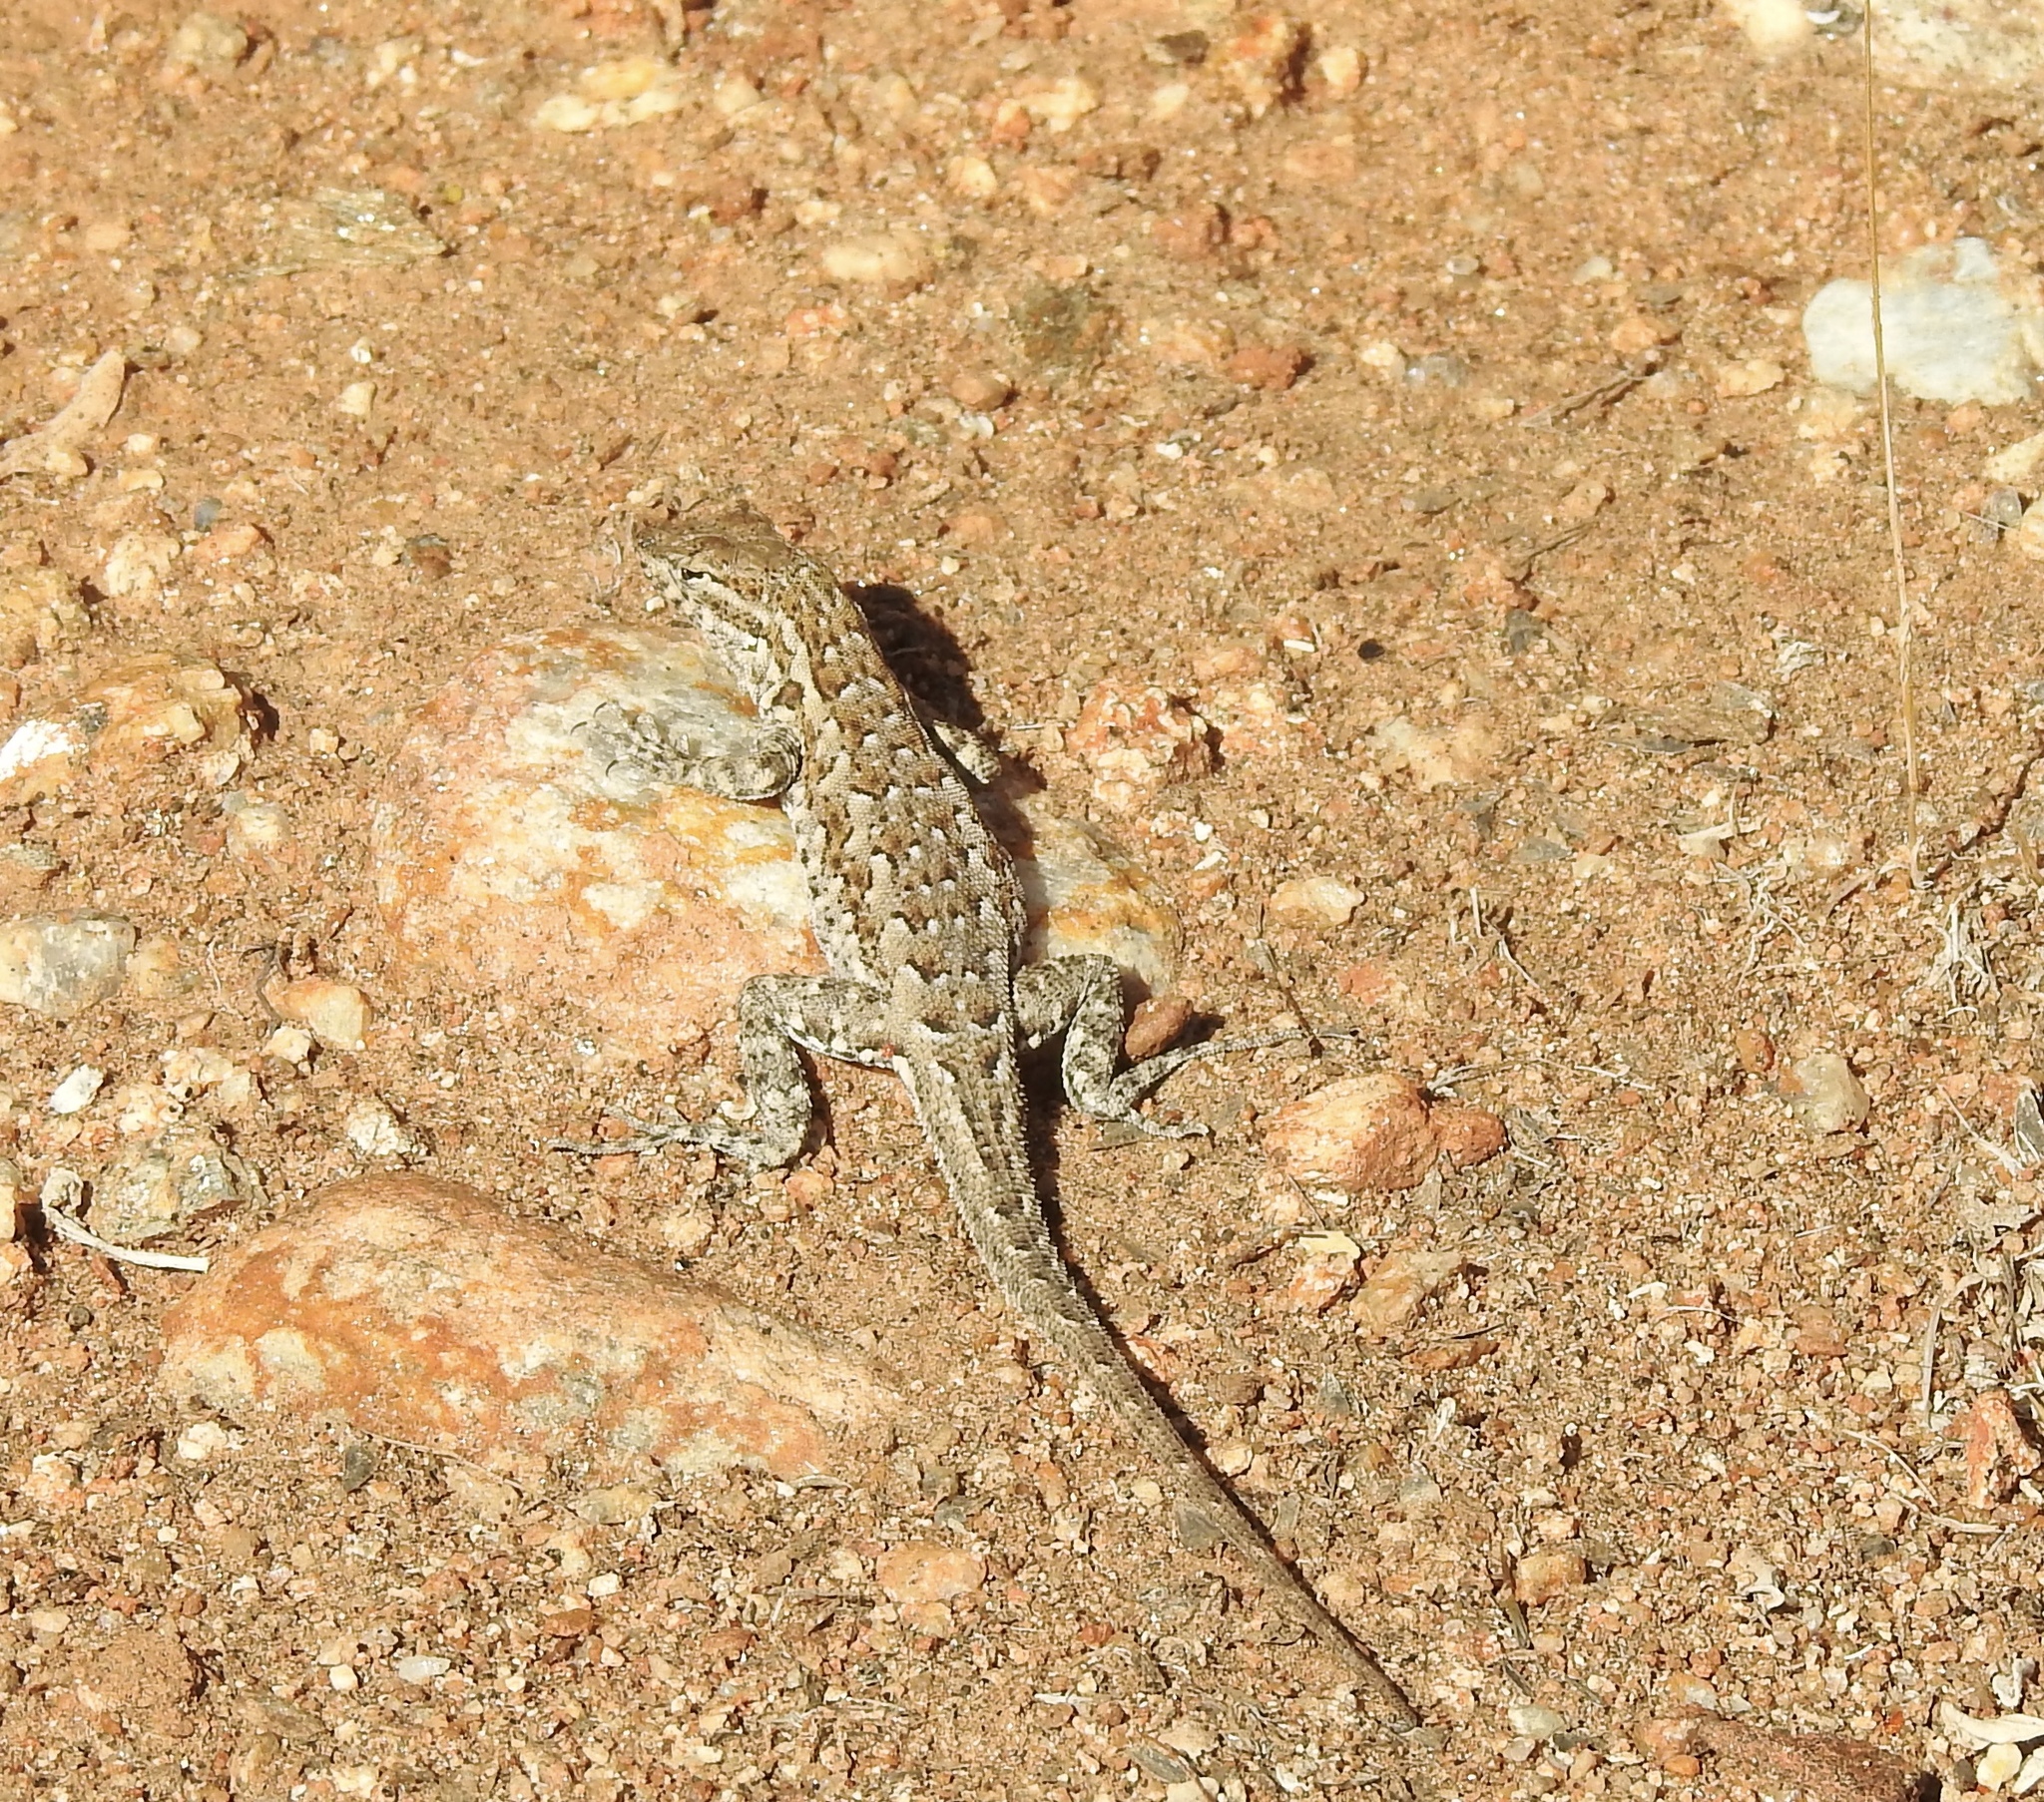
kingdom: Animalia
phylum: Chordata
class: Squamata
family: Phrynosomatidae
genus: Uta
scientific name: Uta stansburiana
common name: Side-blotched lizard
